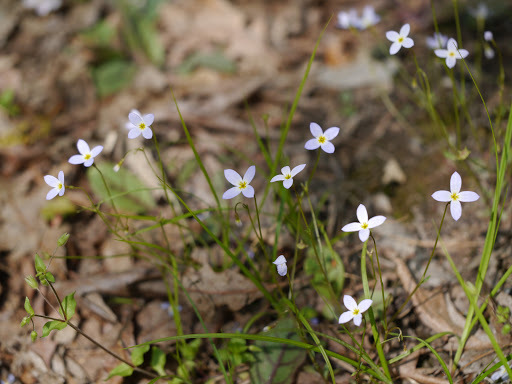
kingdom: Plantae
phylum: Tracheophyta
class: Magnoliopsida
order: Gentianales
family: Rubiaceae
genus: Houstonia
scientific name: Houstonia caerulea
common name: Bluets
